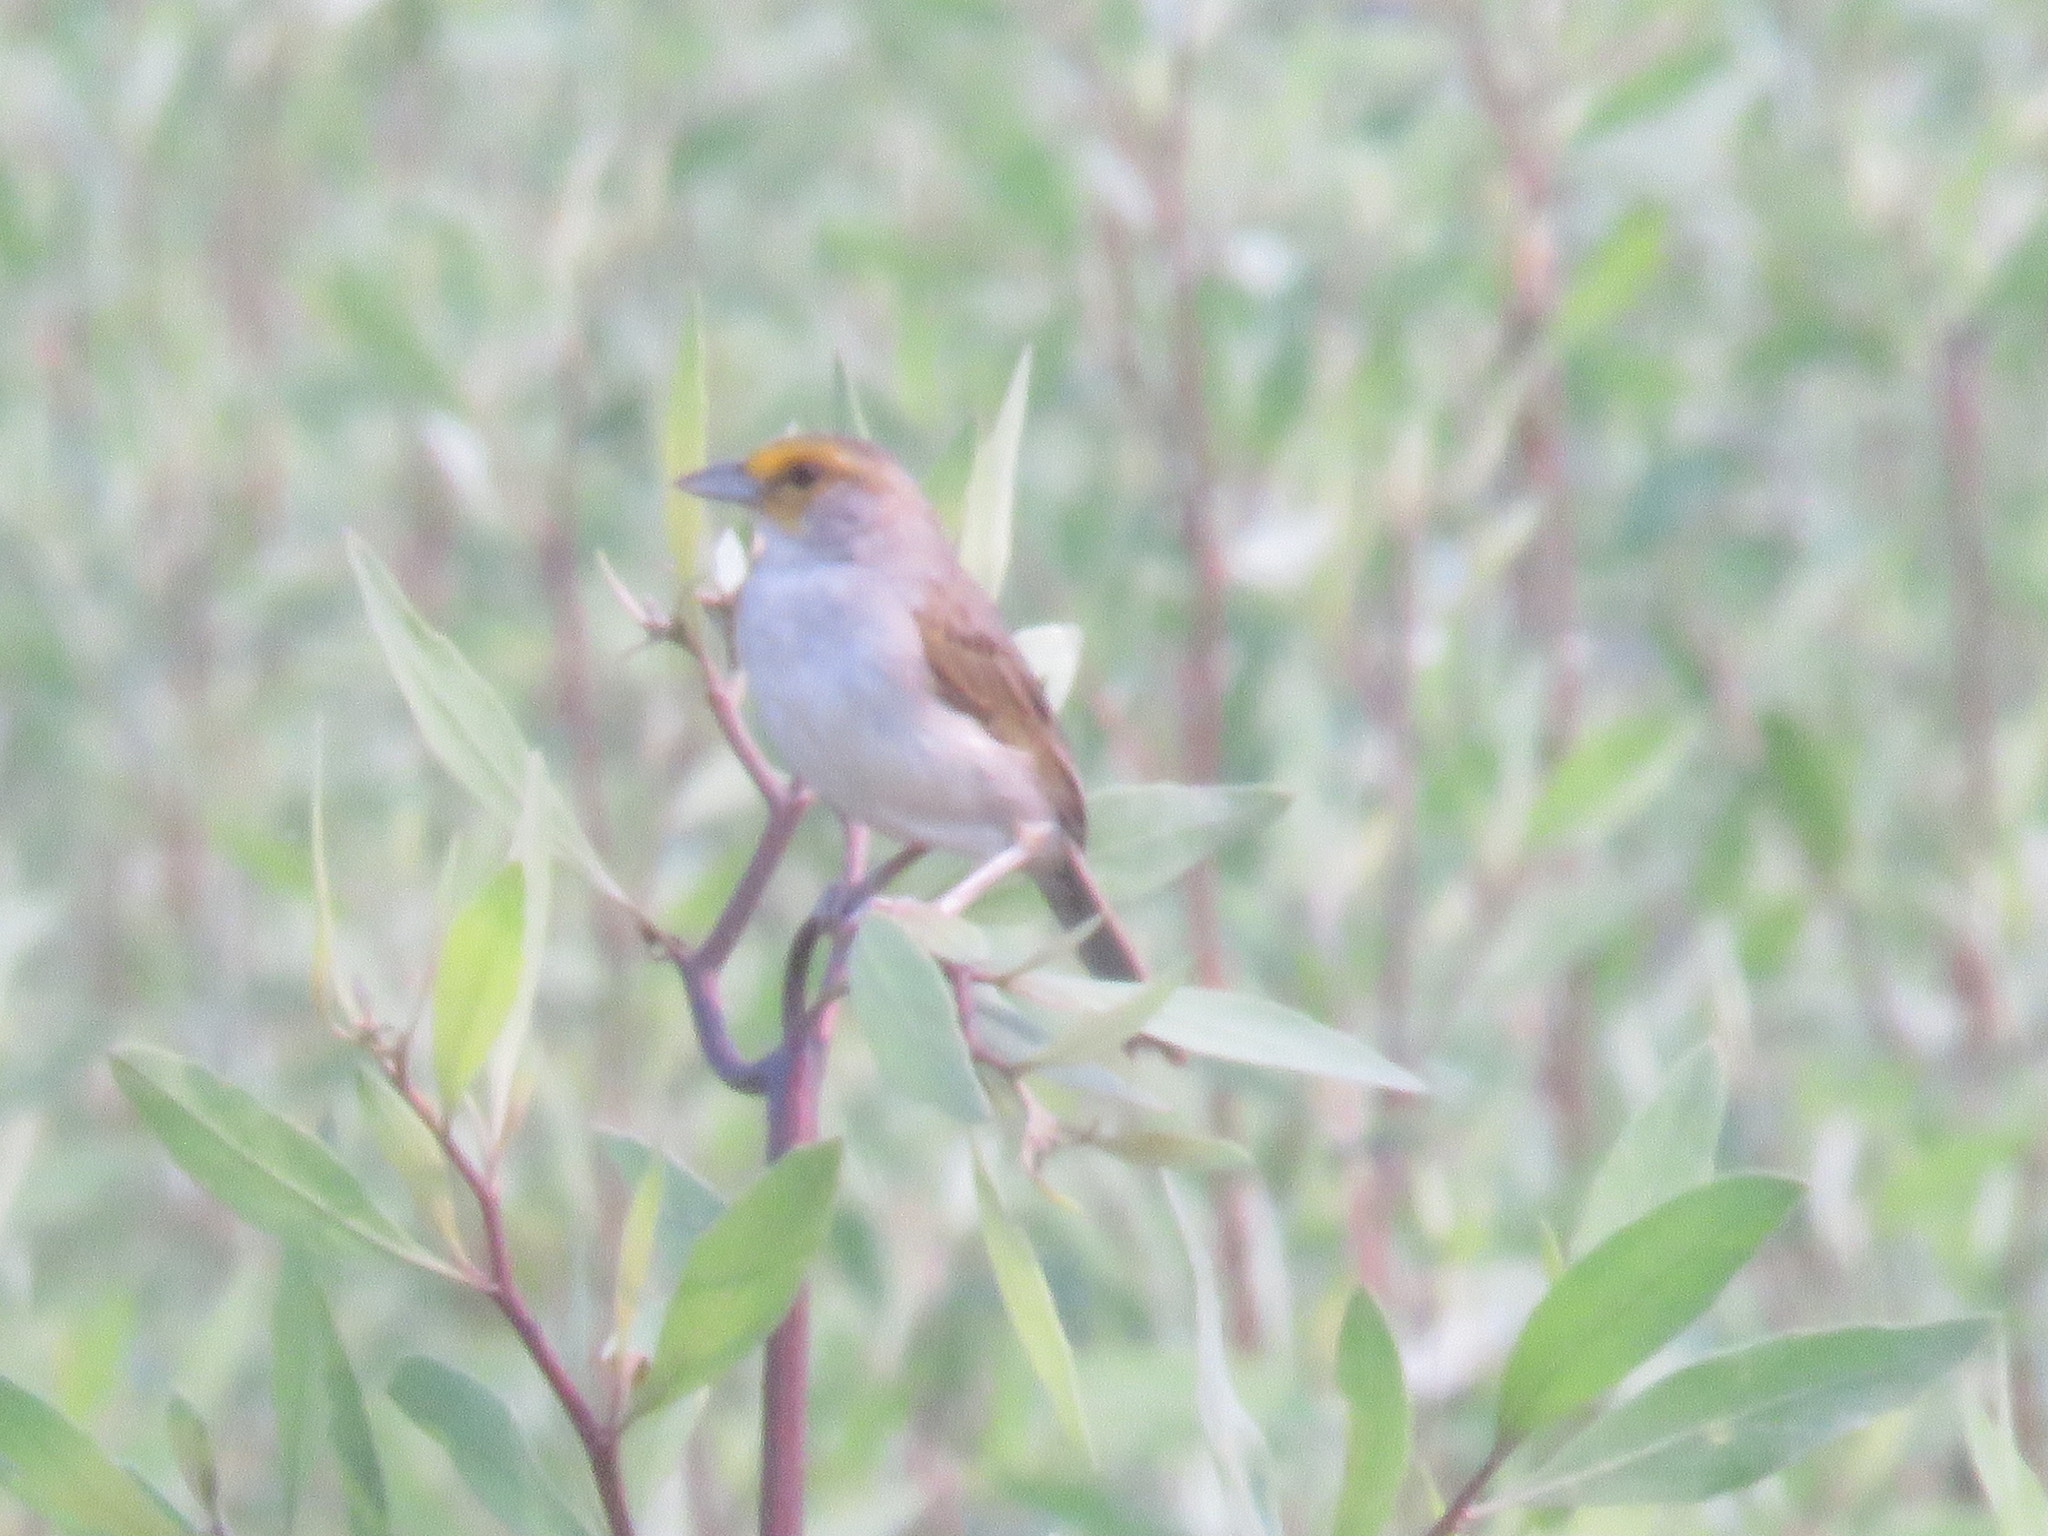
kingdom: Animalia
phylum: Chordata
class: Aves
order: Passeriformes
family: Passerellidae
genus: Ammodramus
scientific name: Ammodramus aurifrons
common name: Yellow-browed sparrow
